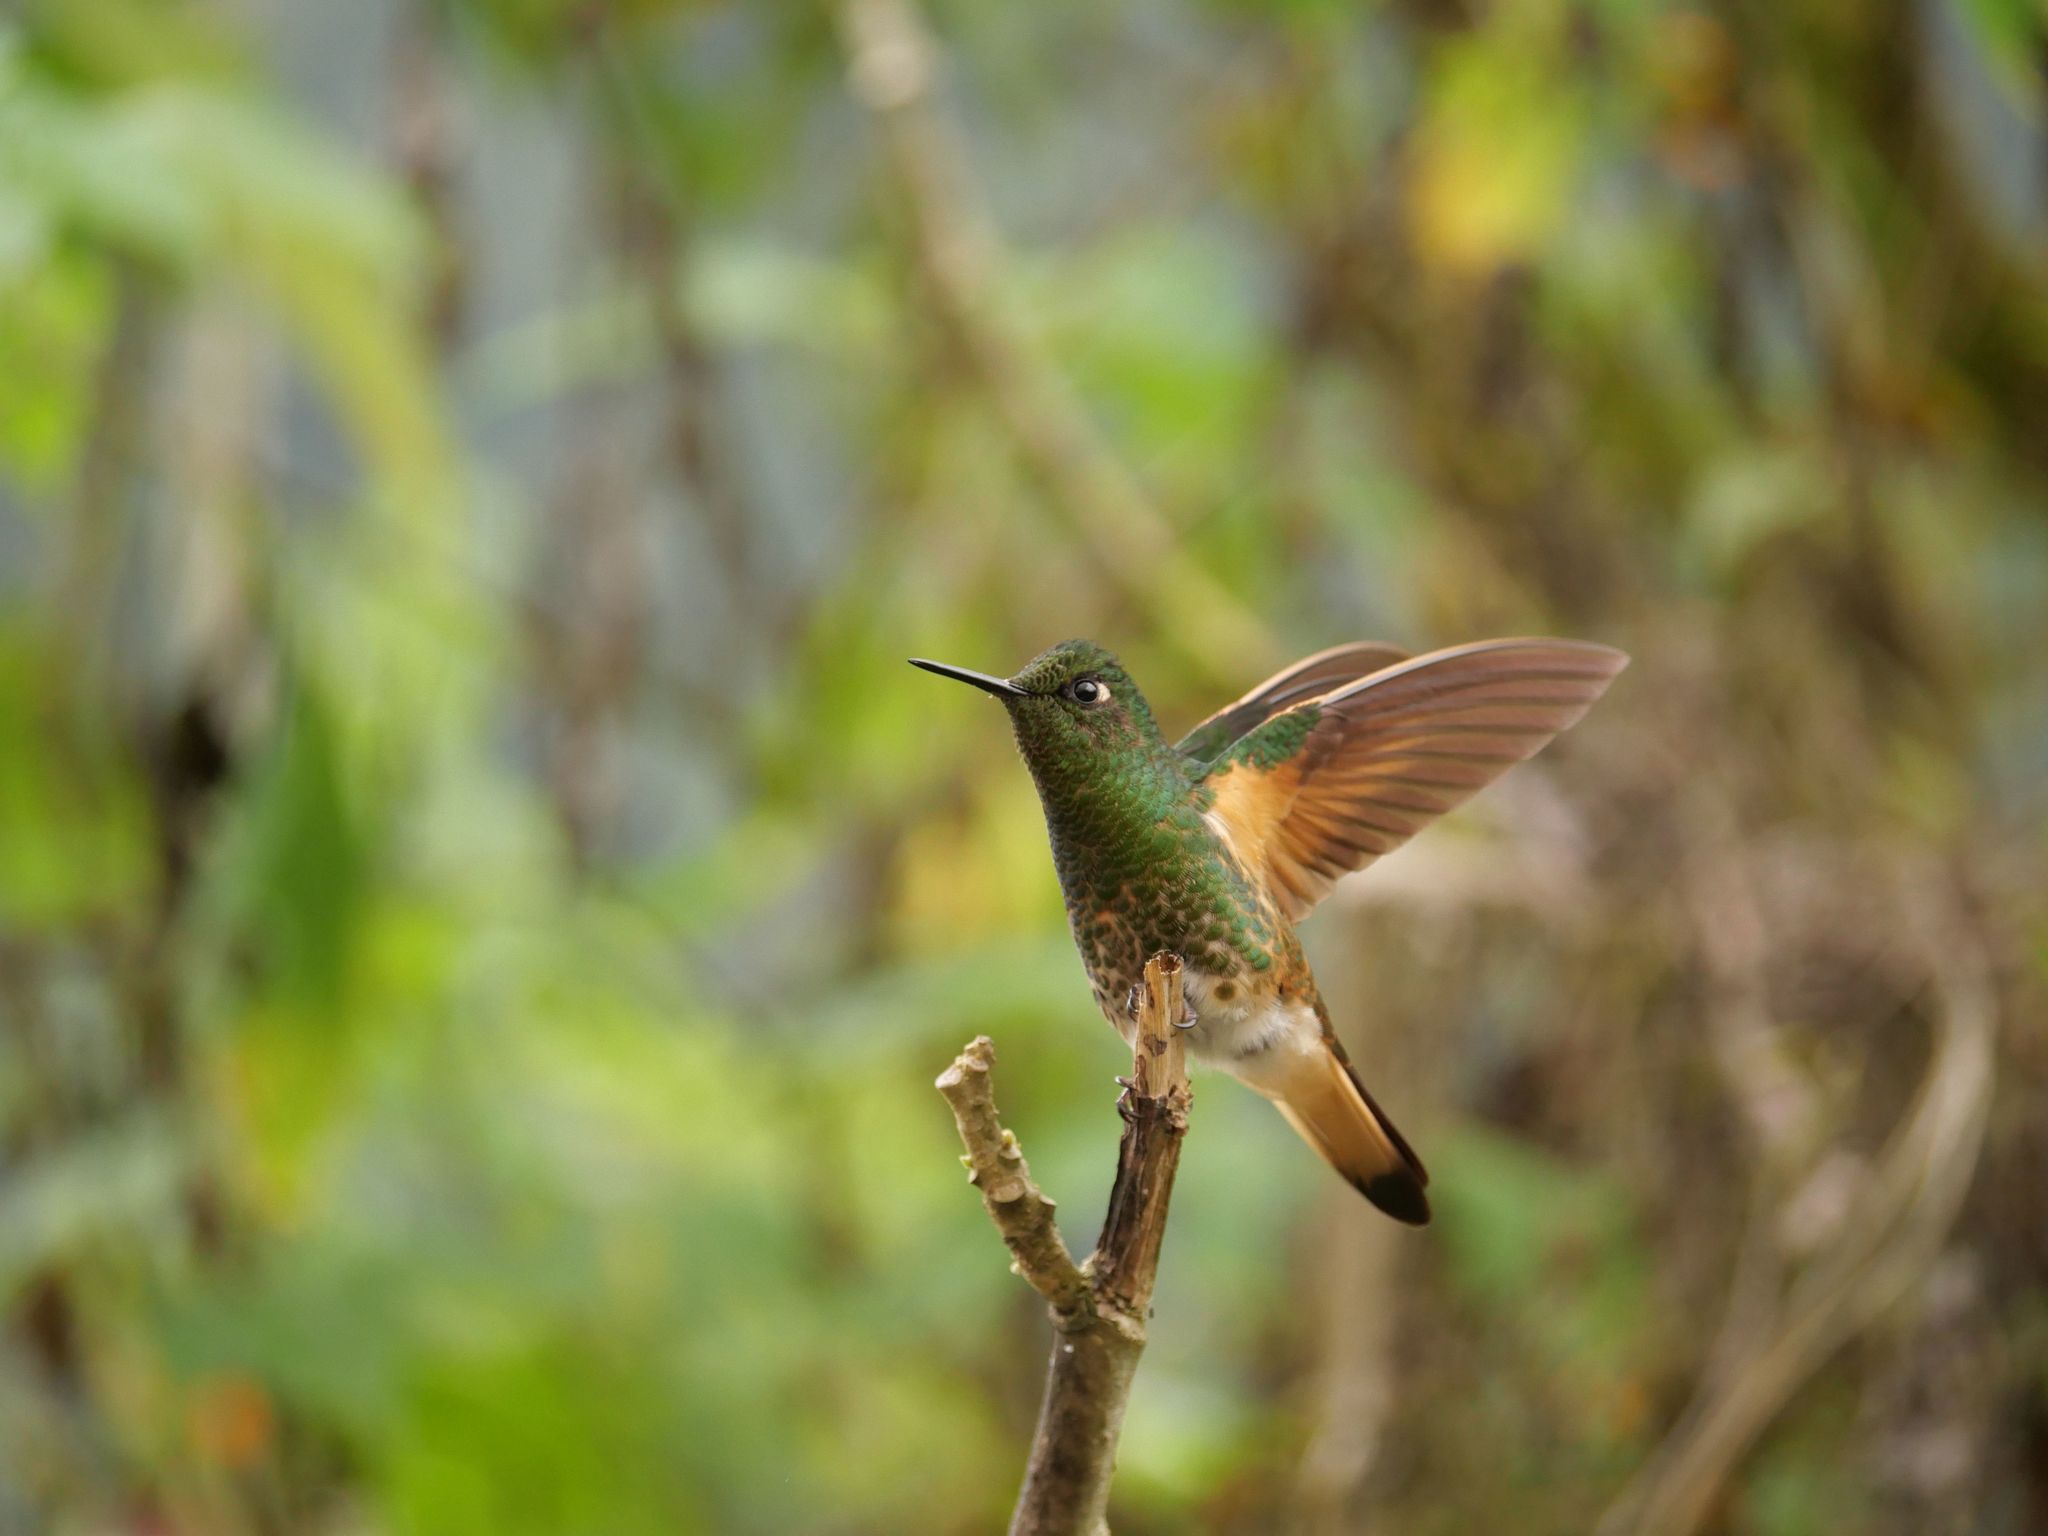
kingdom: Animalia
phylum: Chordata
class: Aves
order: Apodiformes
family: Trochilidae
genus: Boissonneaua
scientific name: Boissonneaua flavescens
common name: Buff-tailed coronet
